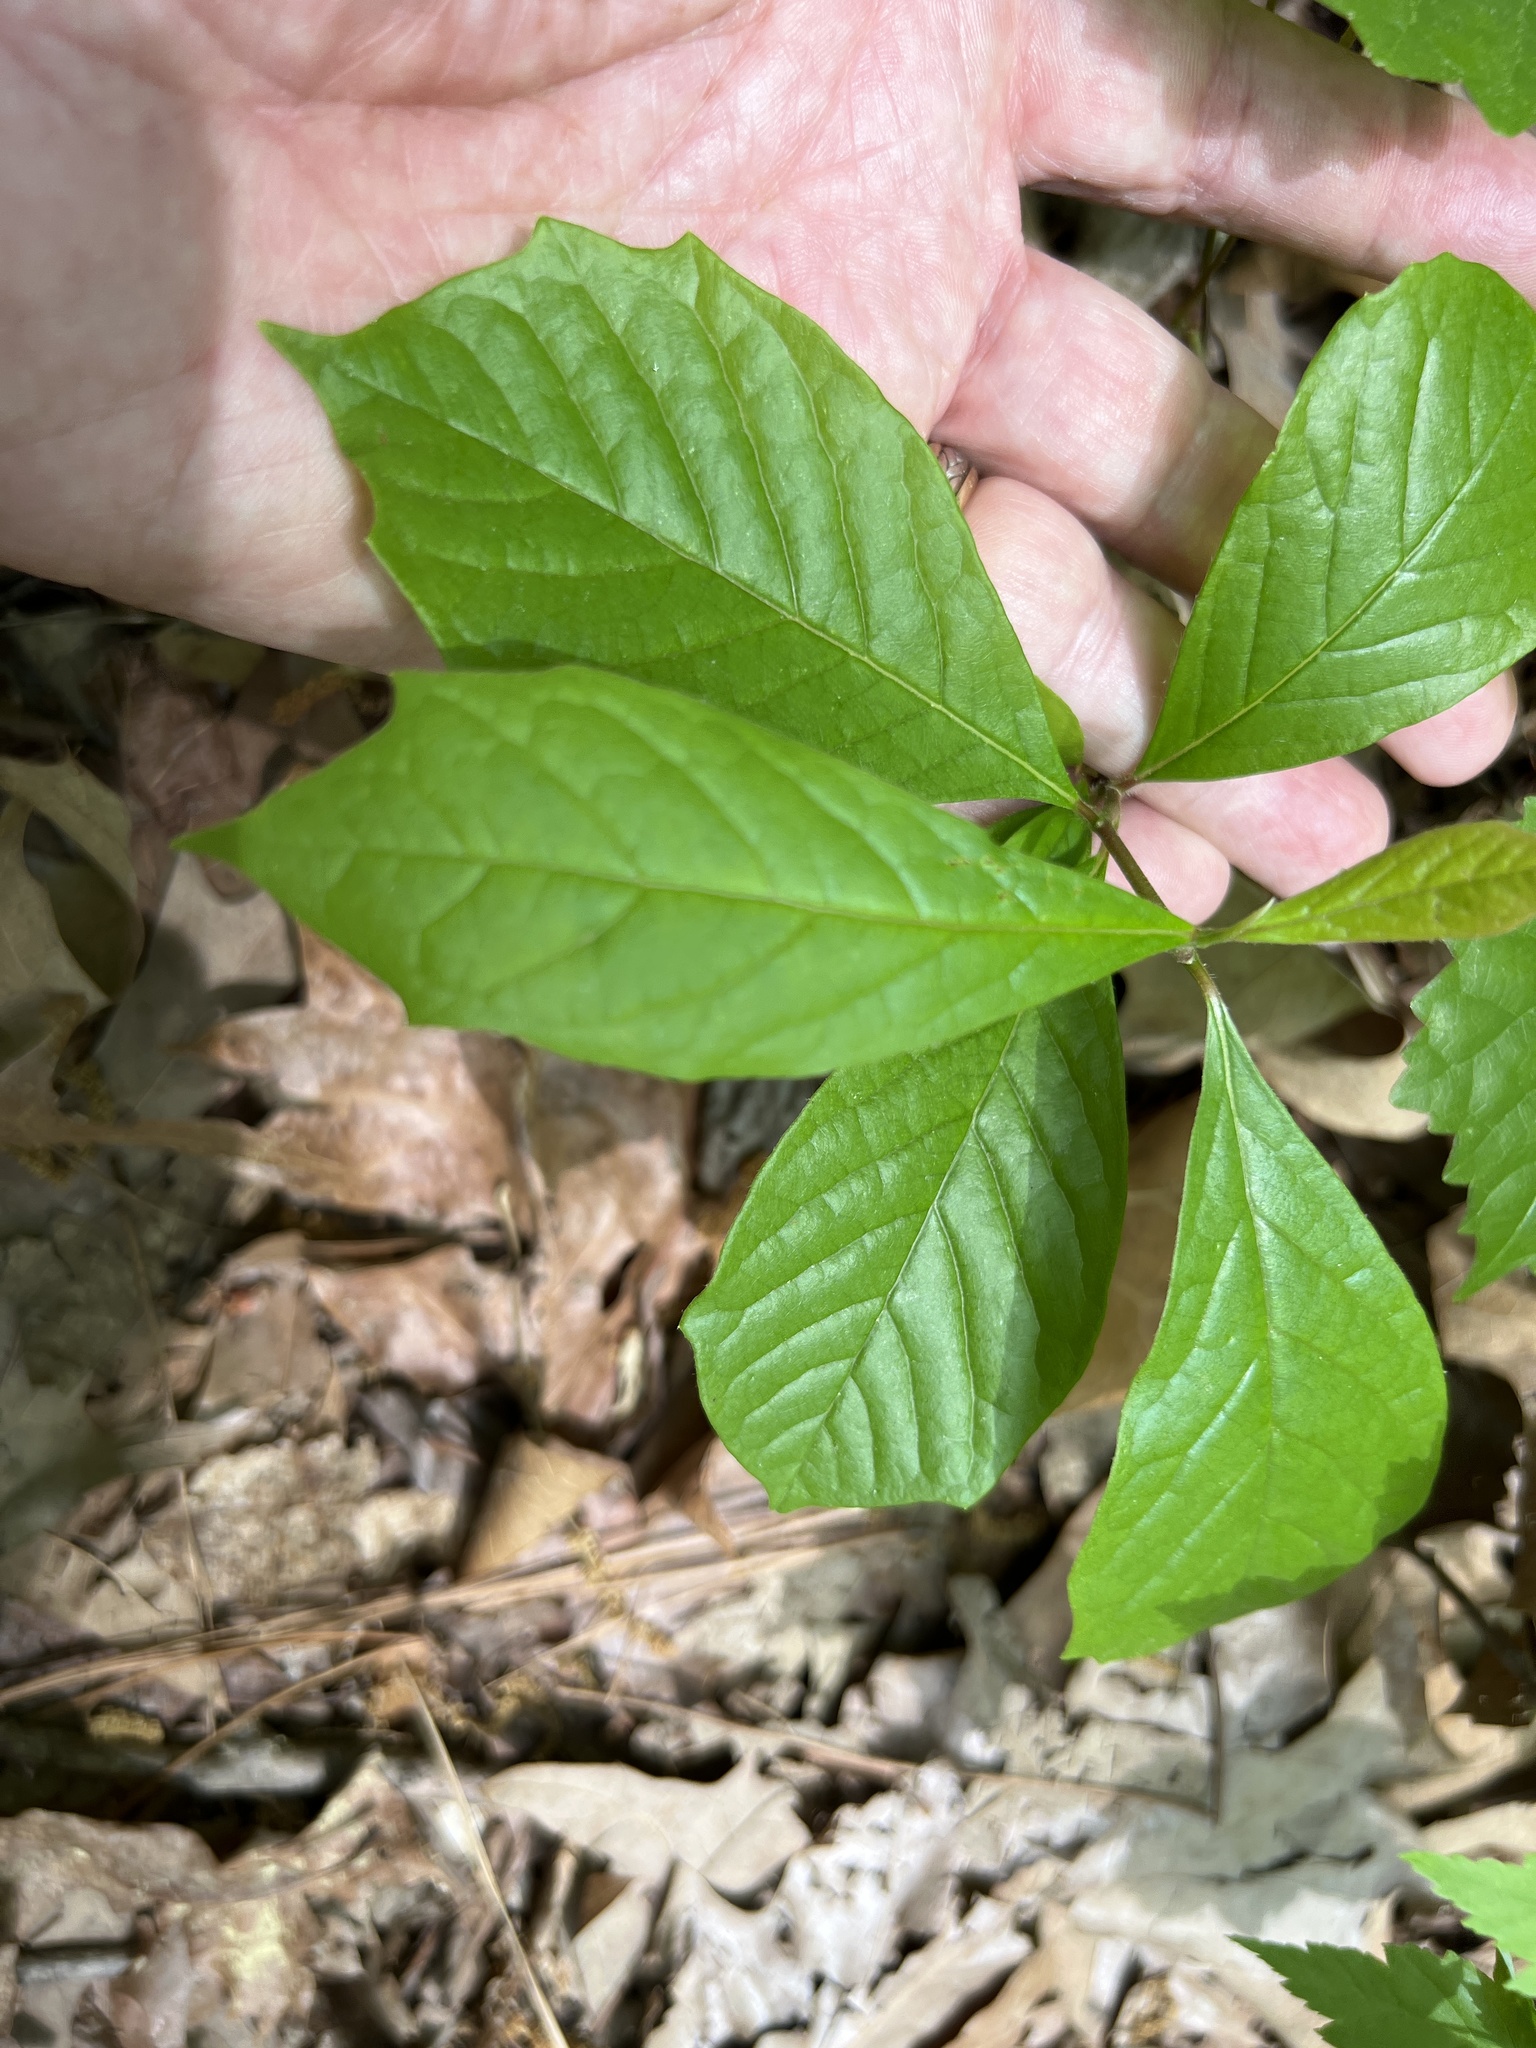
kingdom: Plantae
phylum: Tracheophyta
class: Magnoliopsida
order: Cornales
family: Nyssaceae
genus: Nyssa
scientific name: Nyssa sylvatica
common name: Black tupelo
